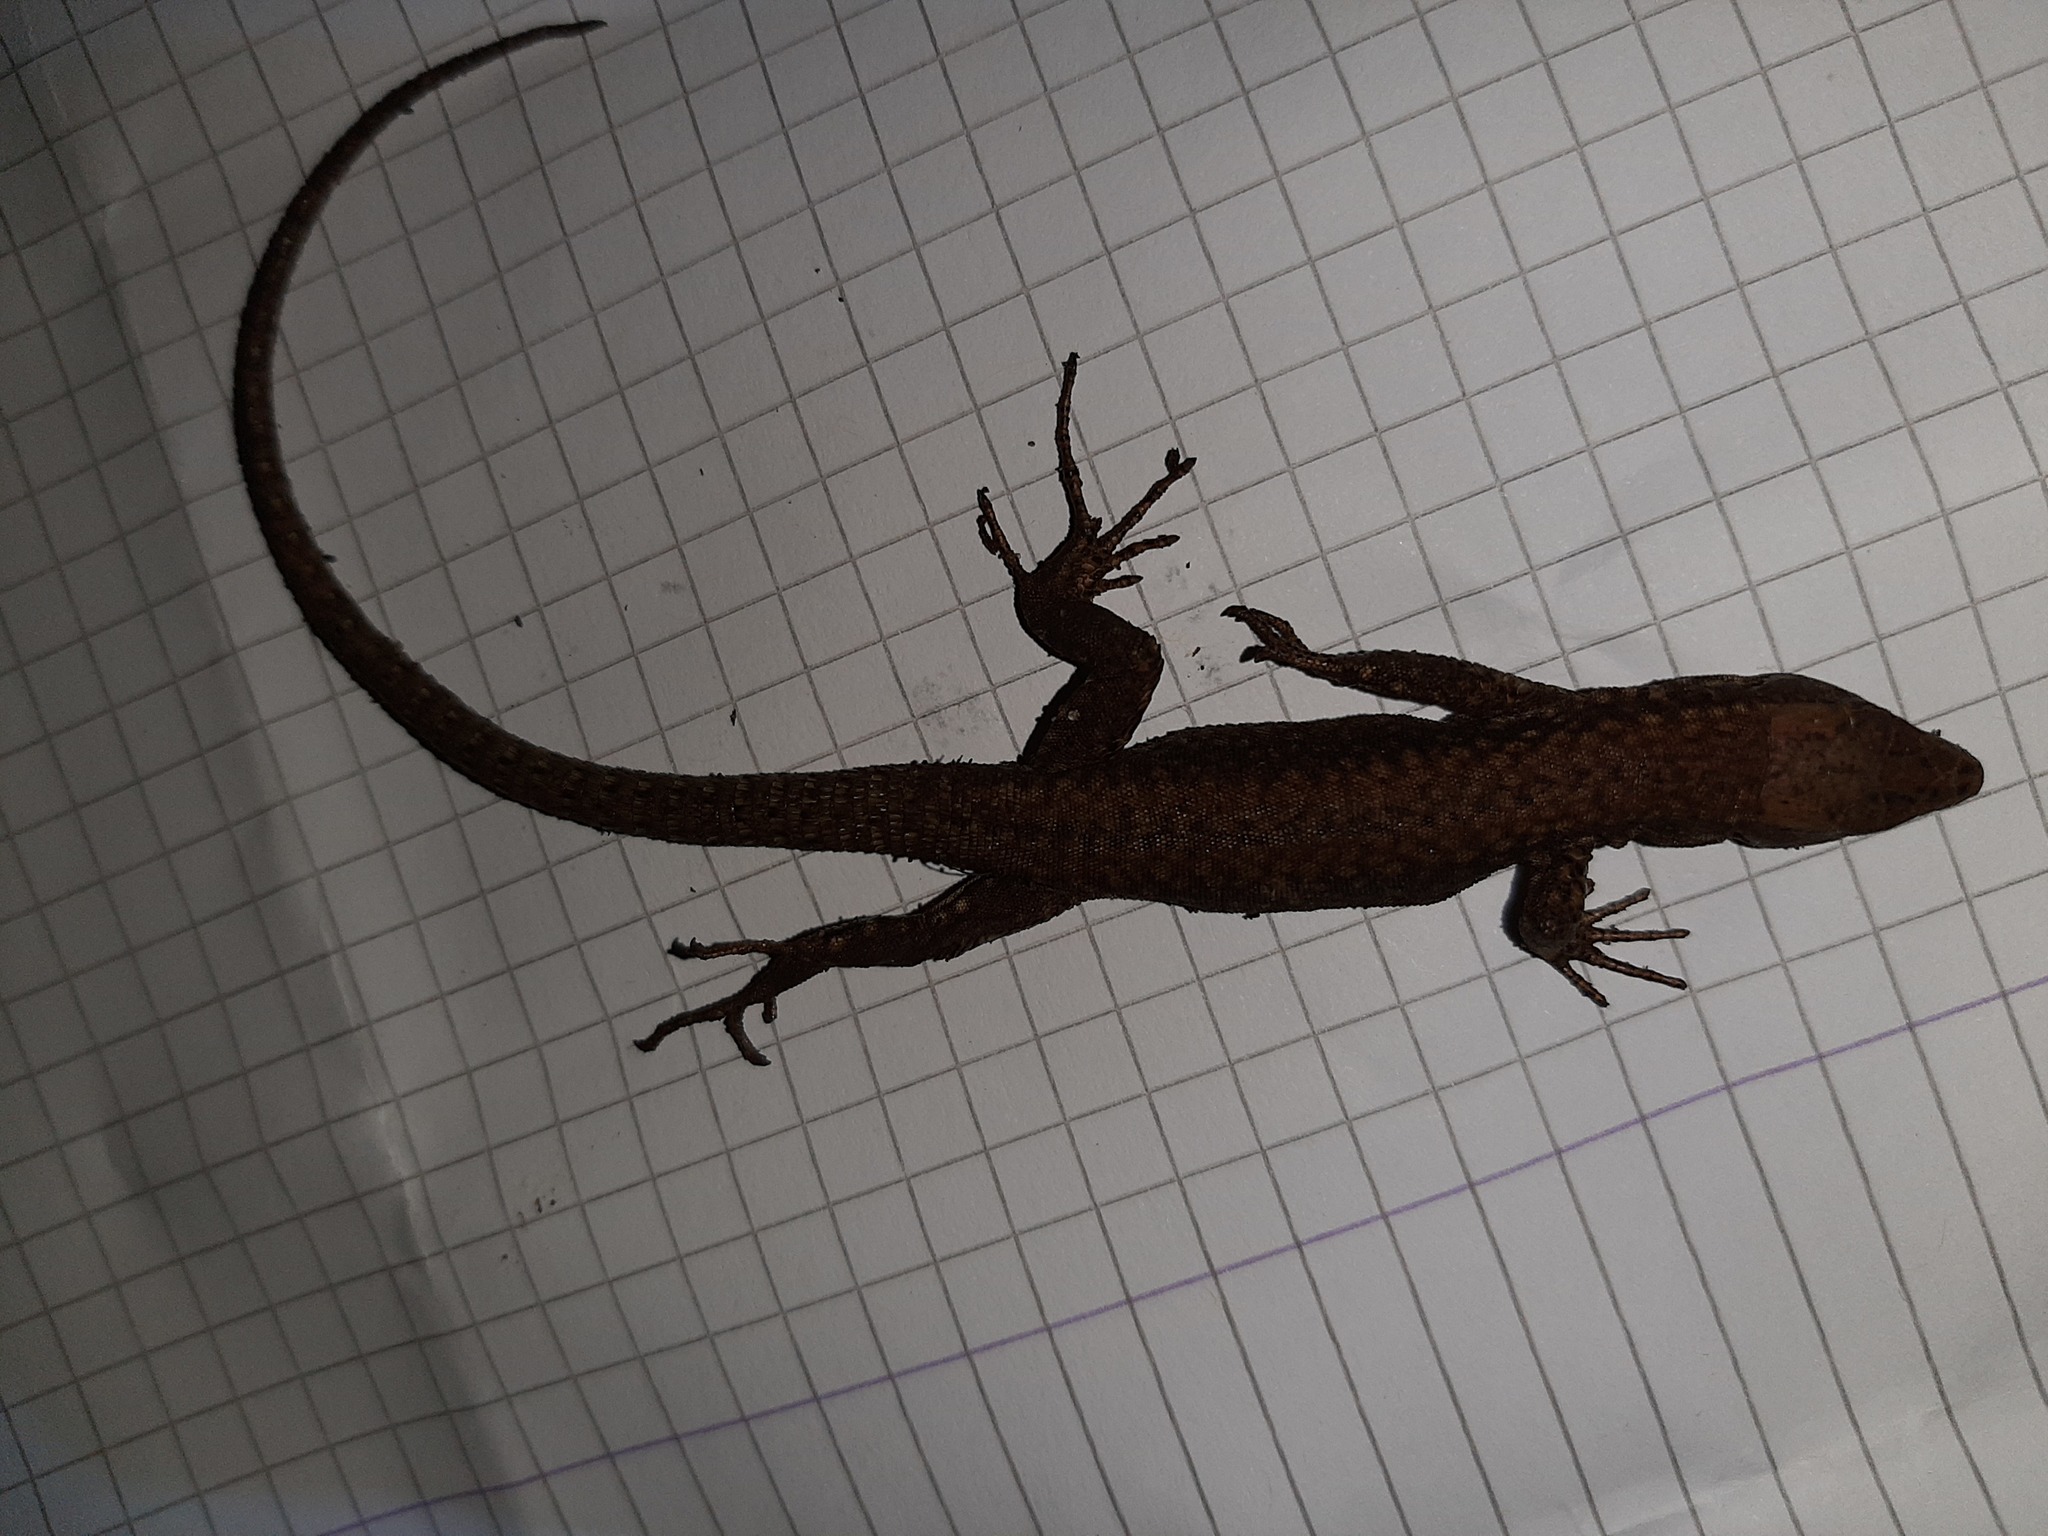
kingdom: Animalia
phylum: Chordata
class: Squamata
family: Lacertidae
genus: Podarcis
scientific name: Podarcis muralis
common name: Common wall lizard
